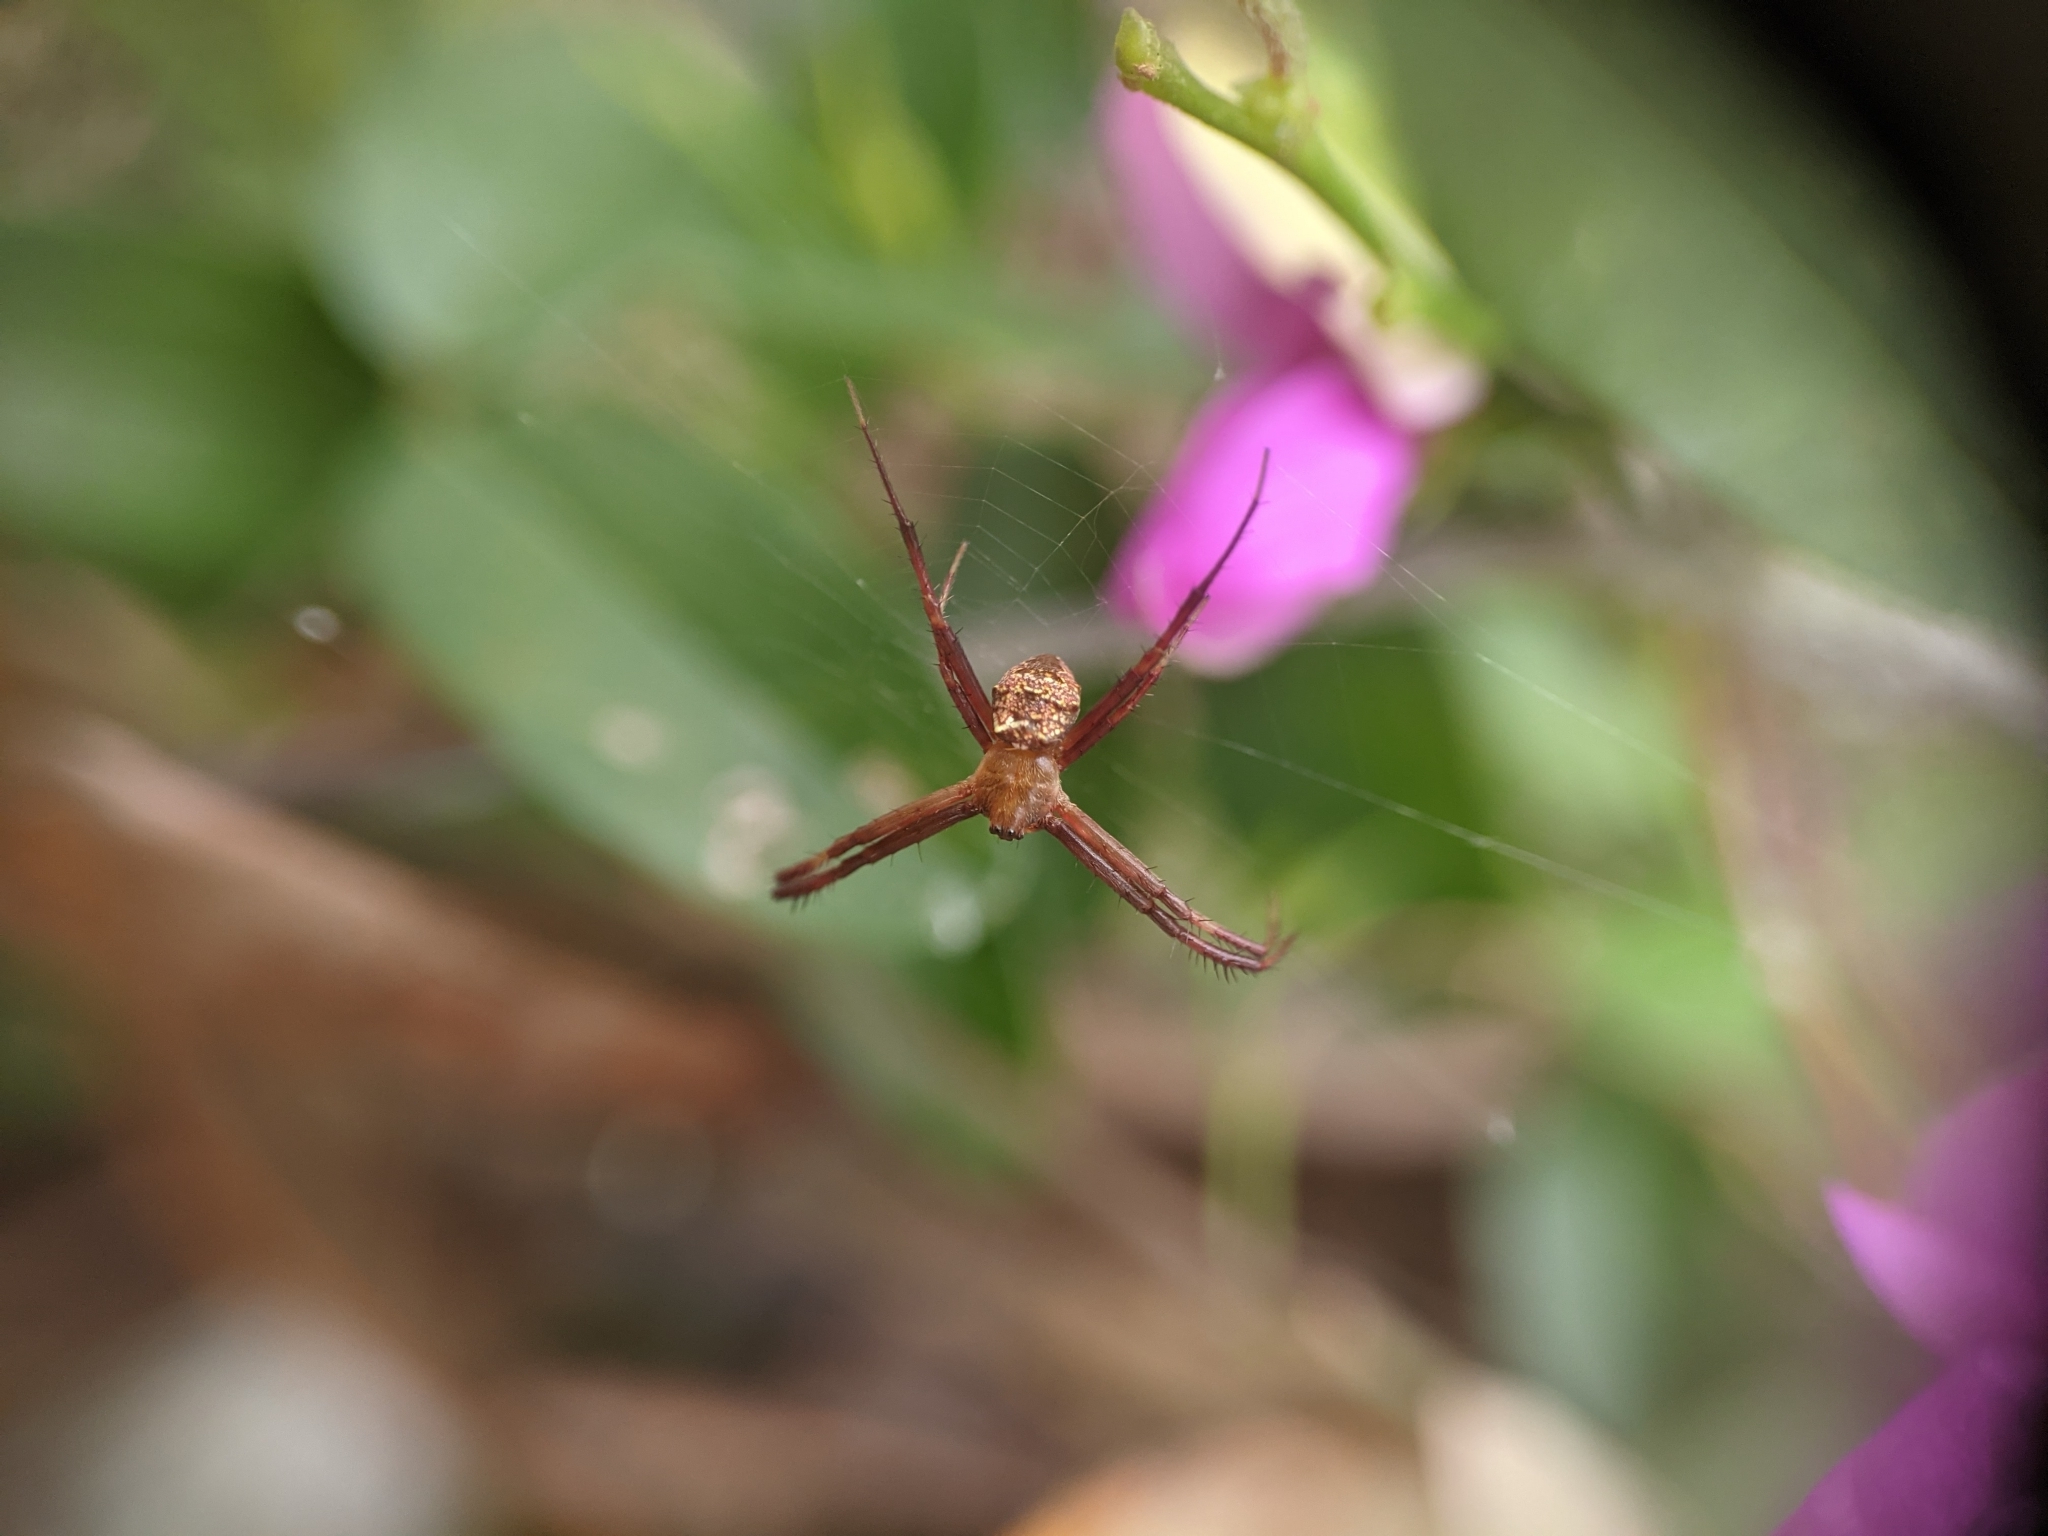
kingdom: Animalia
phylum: Arthropoda
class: Arachnida
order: Araneae
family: Araneidae
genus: Gea
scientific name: Gea heptagon
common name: Orb weavers
